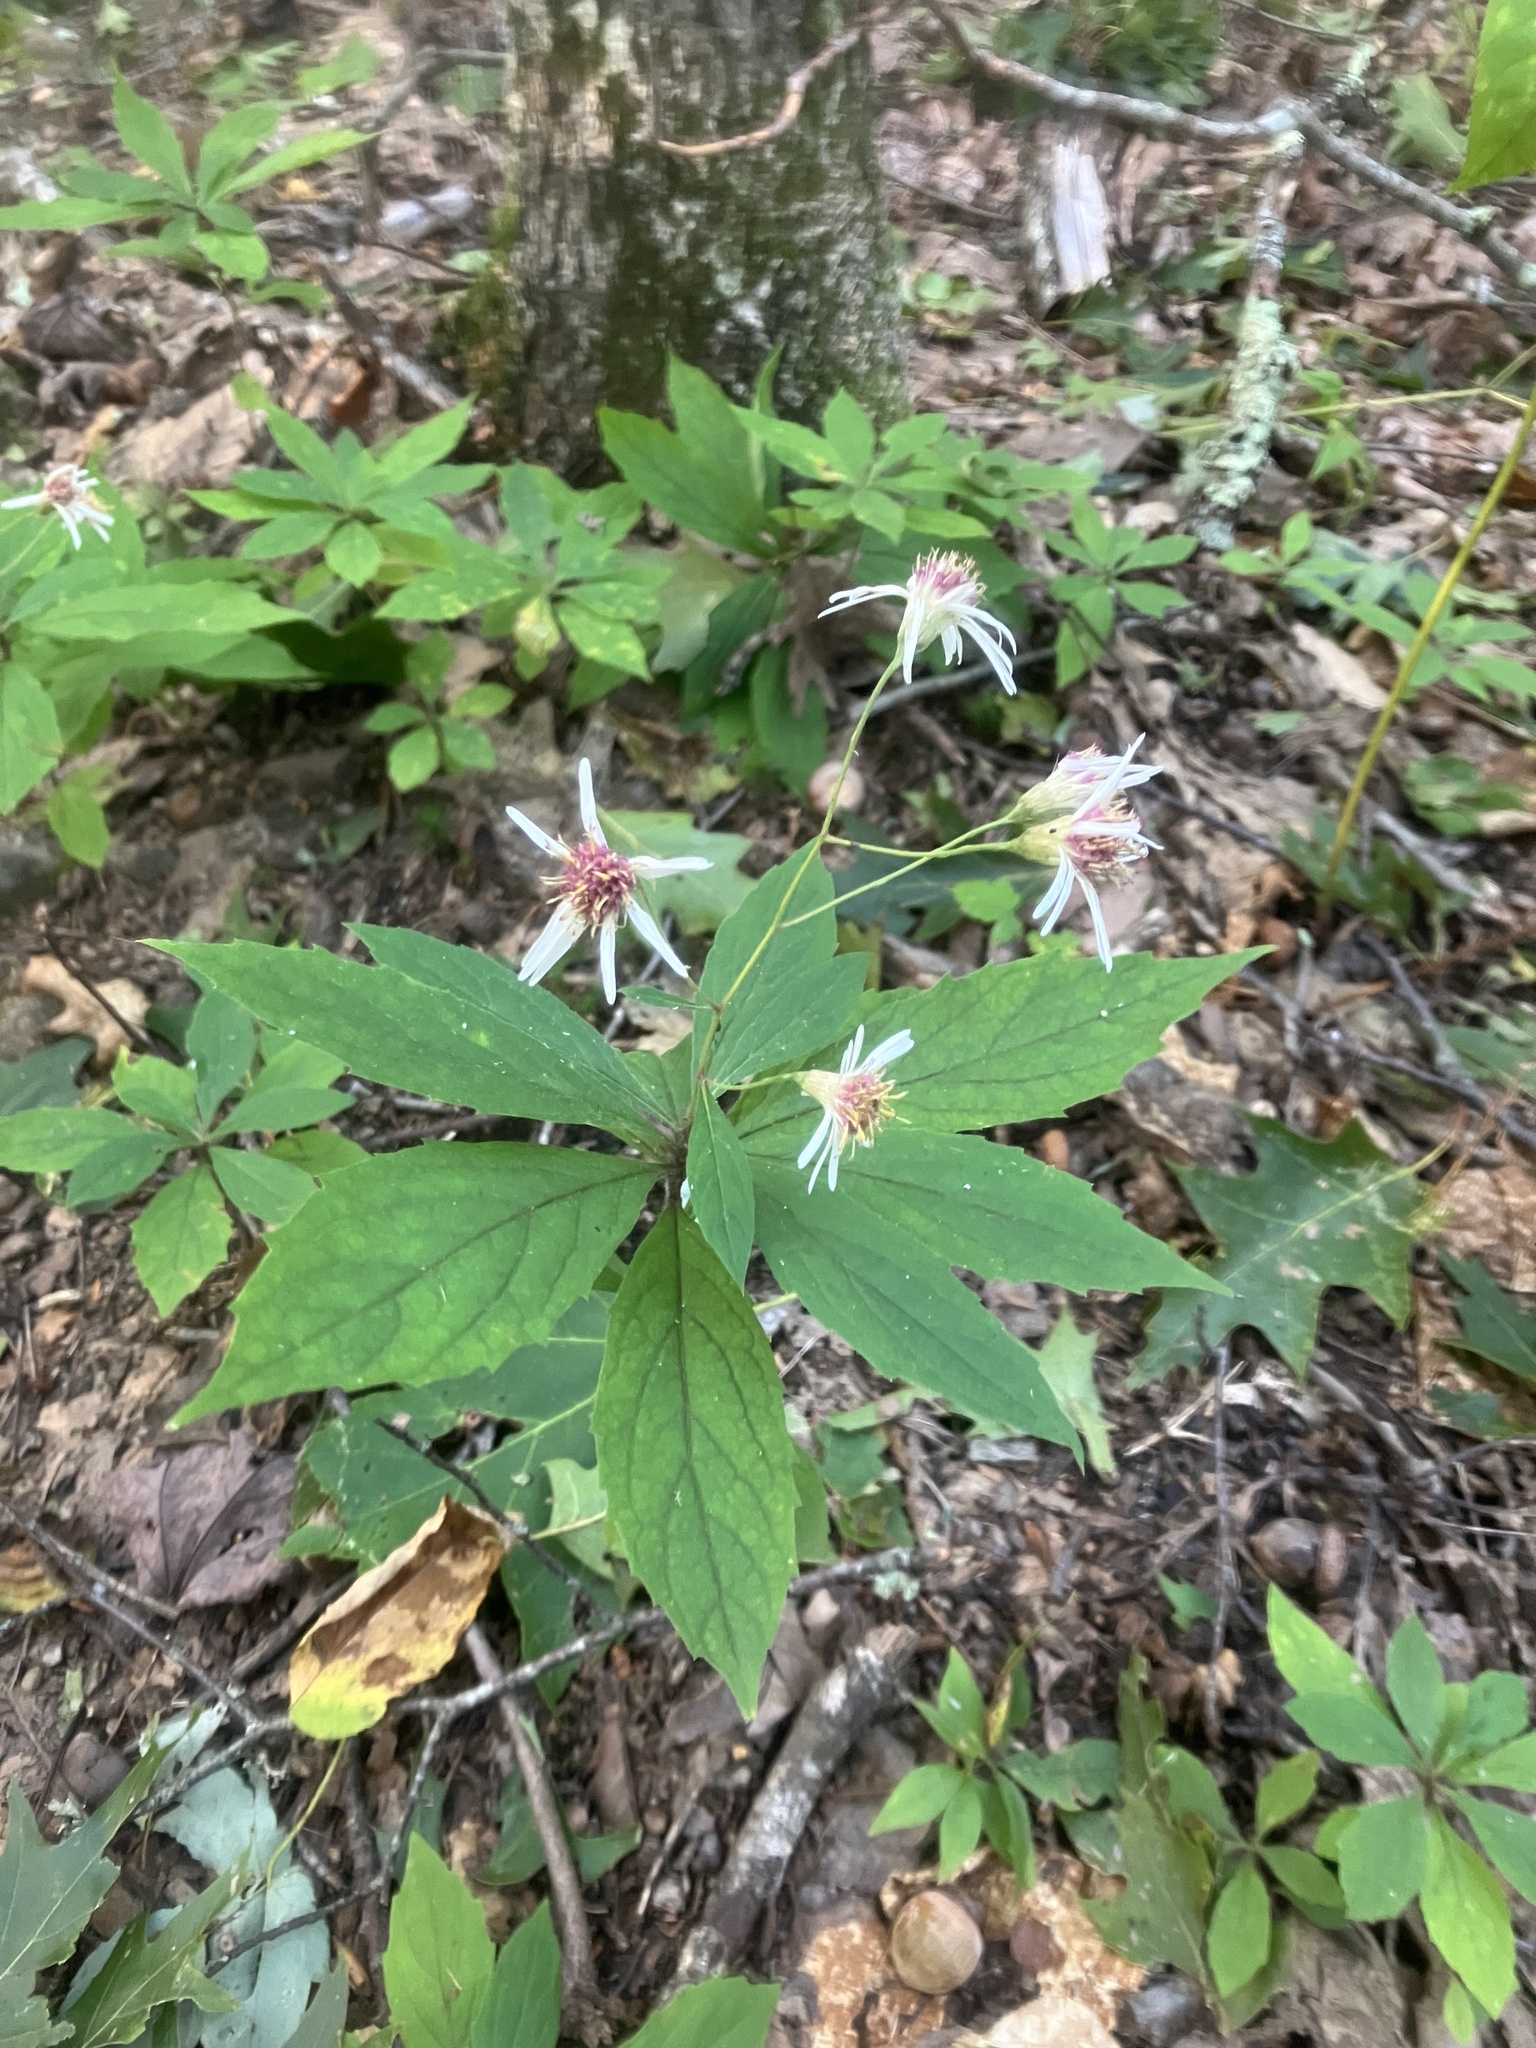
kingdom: Plantae
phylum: Tracheophyta
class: Magnoliopsida
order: Asterales
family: Asteraceae
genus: Oclemena
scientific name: Oclemena acuminata
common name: Mountain aster
